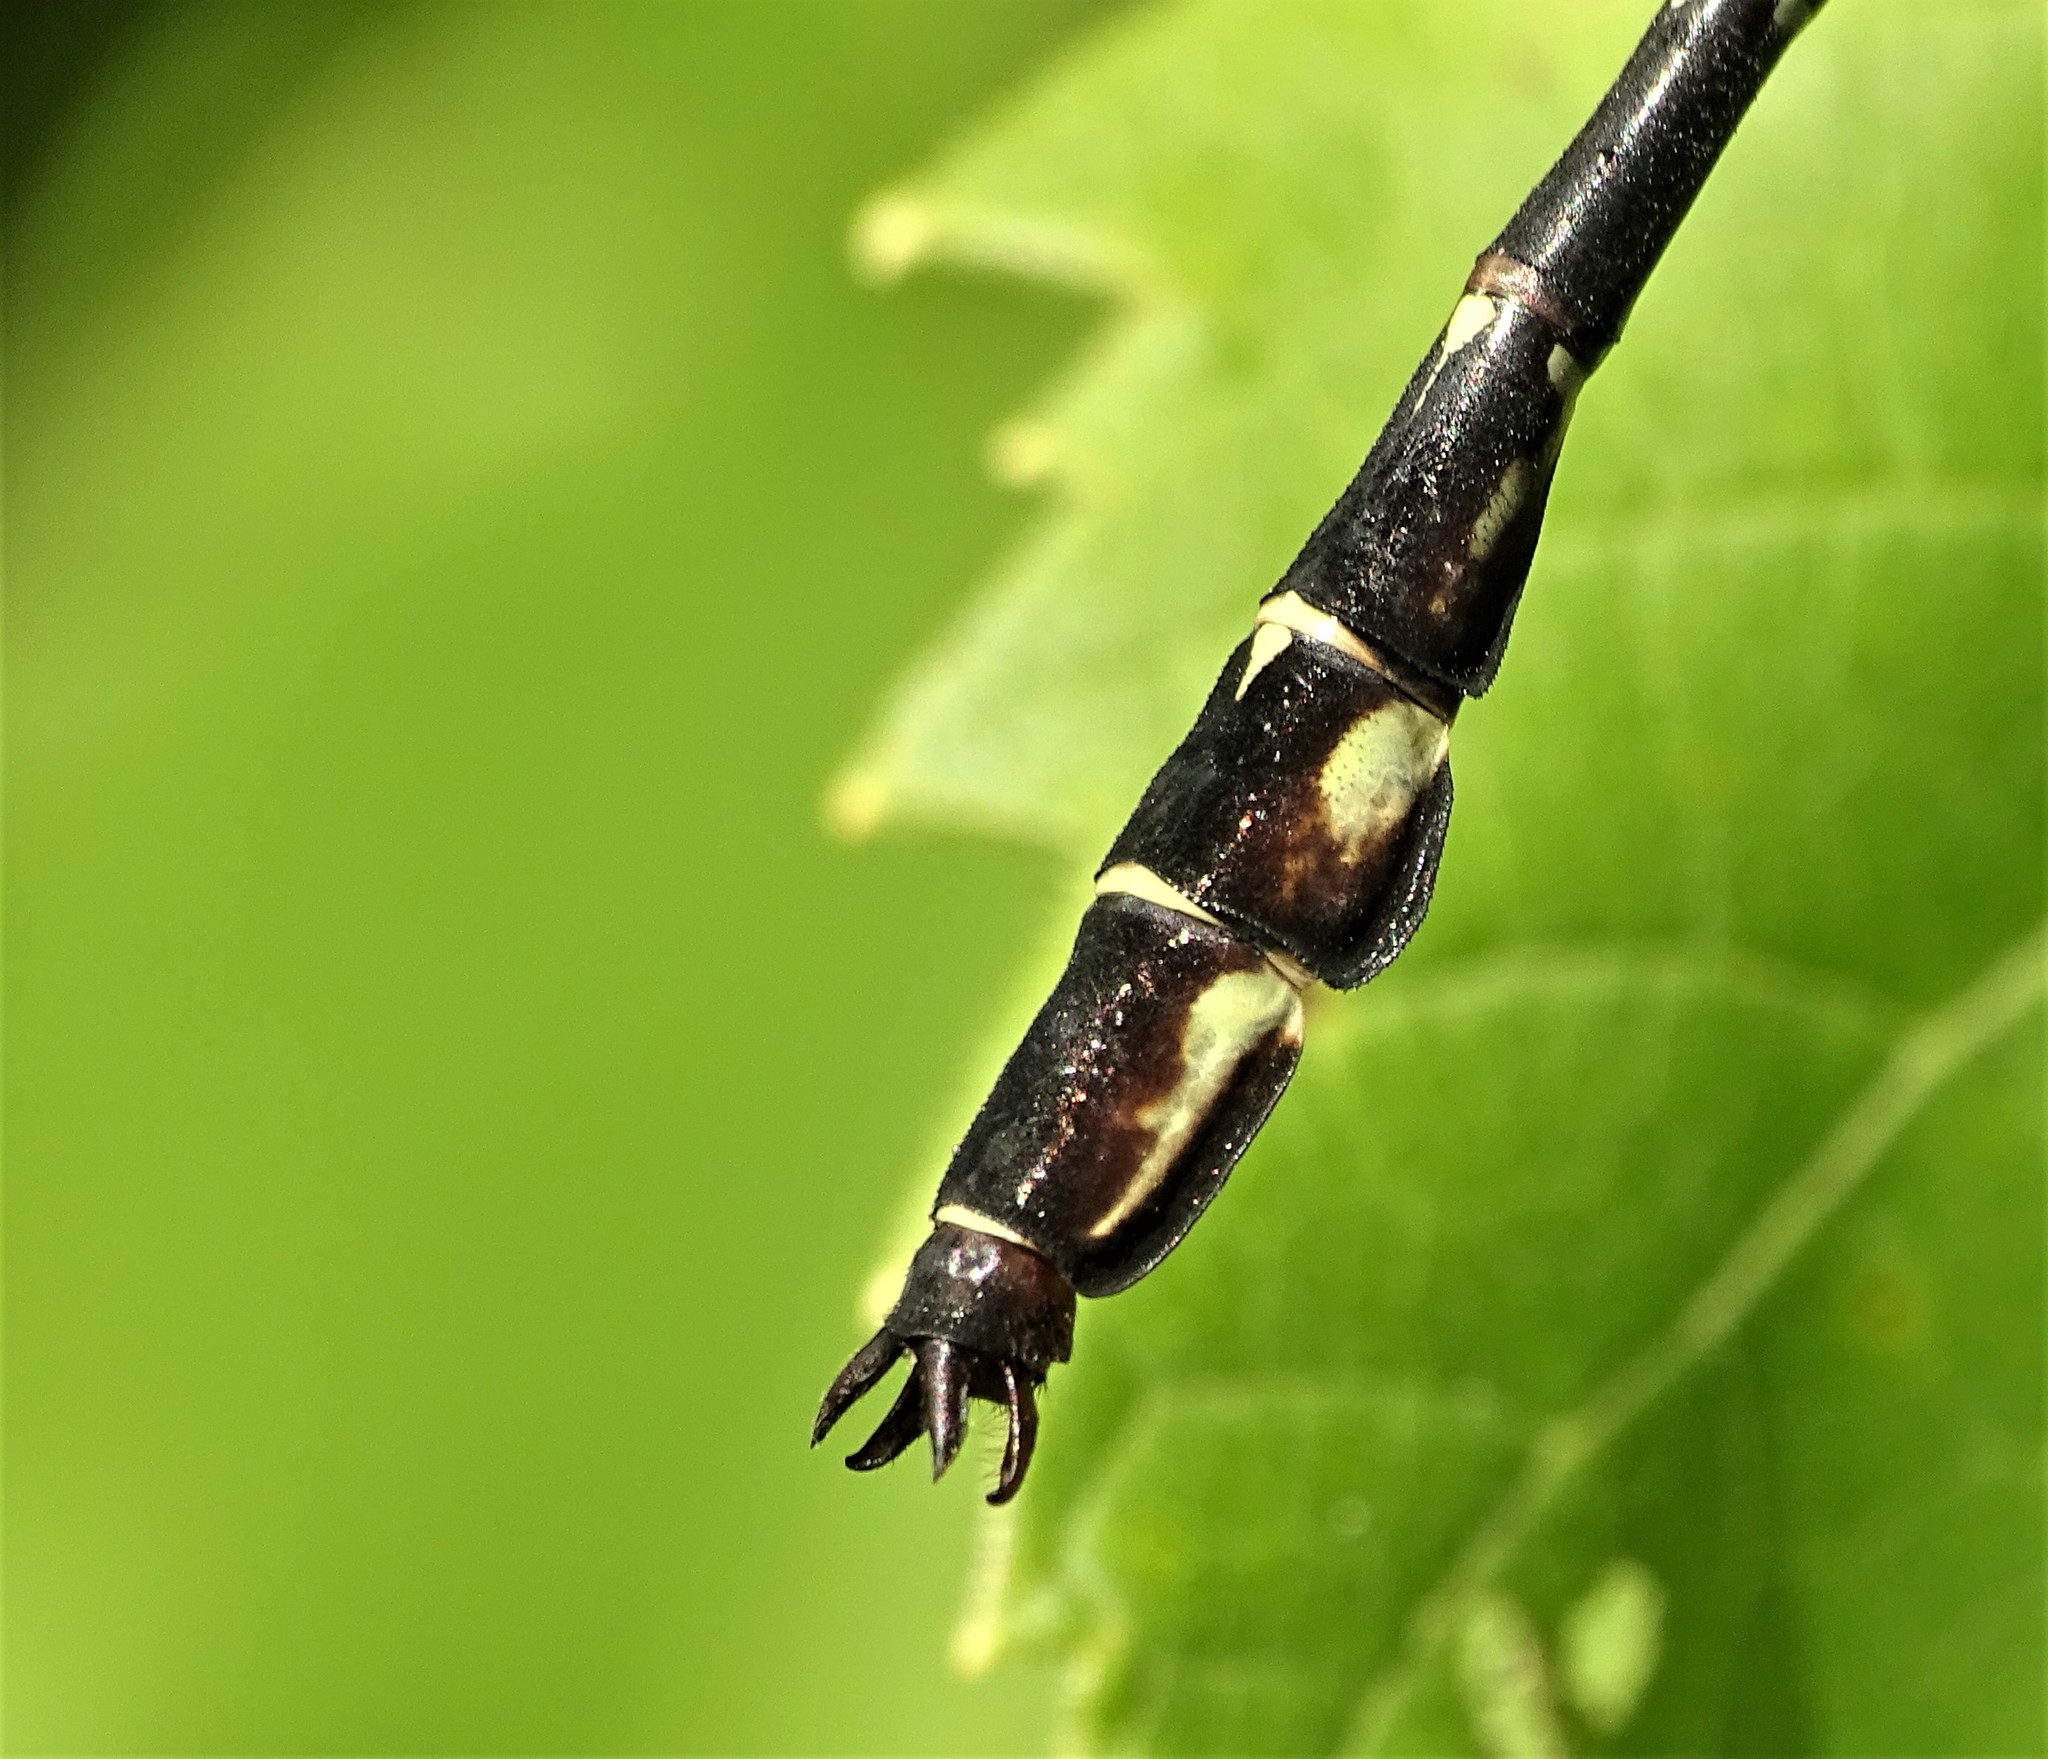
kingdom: Animalia
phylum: Arthropoda
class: Insecta
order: Odonata
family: Gomphidae
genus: Stylurus
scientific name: Stylurus spiniceps
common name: Arrow clubtail
